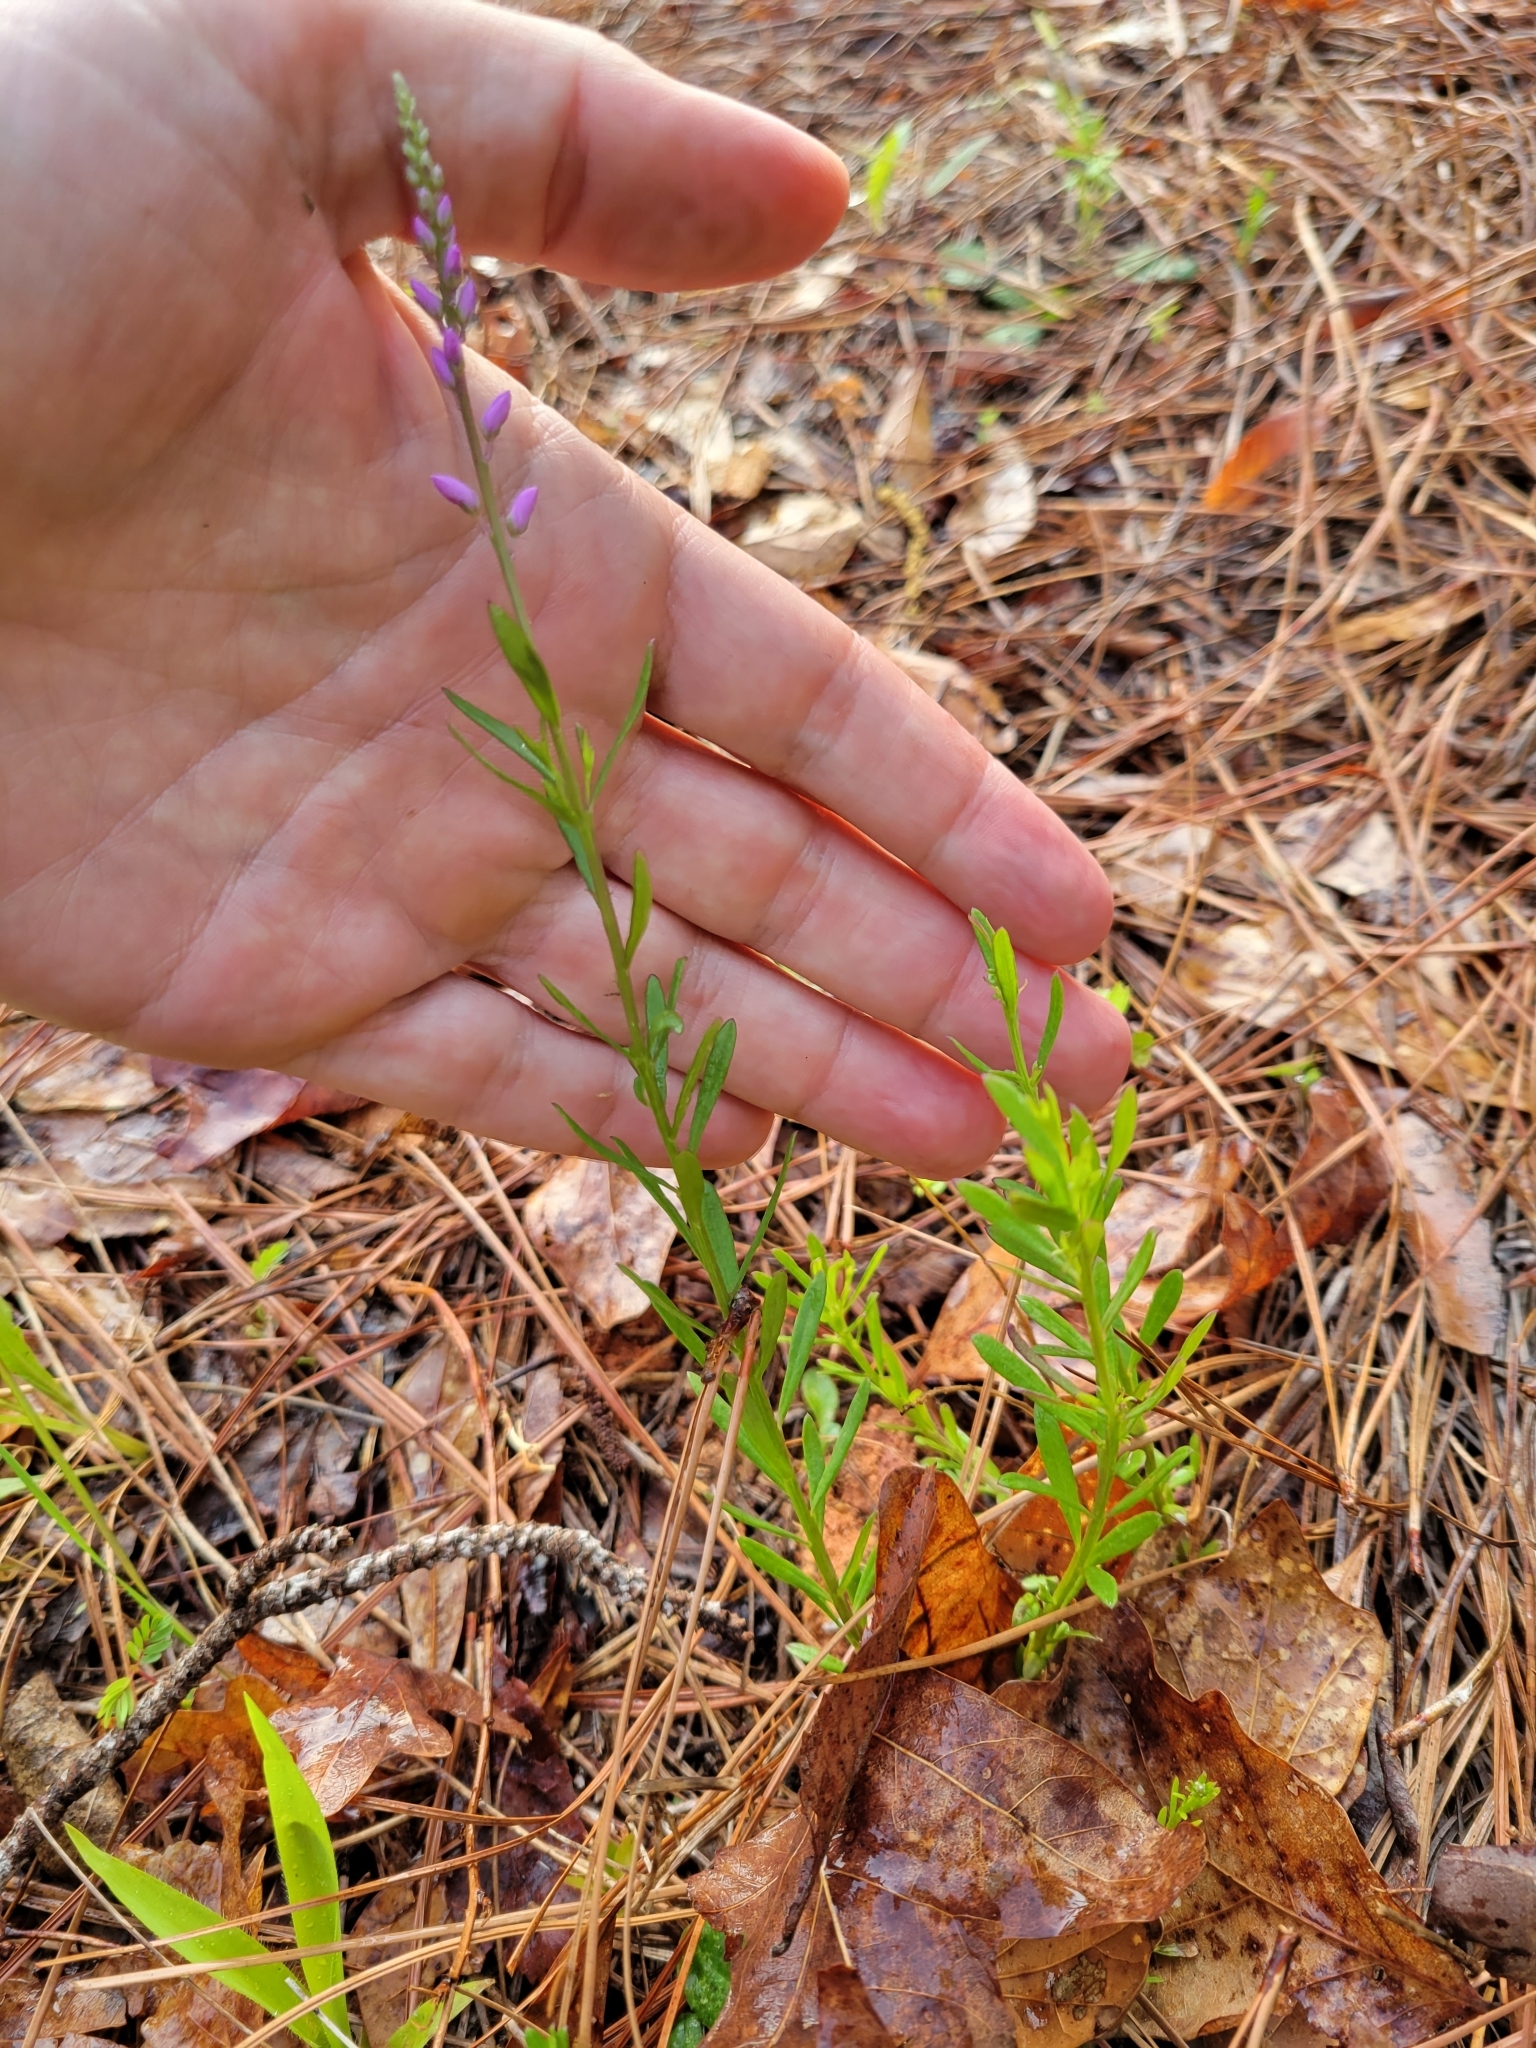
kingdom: Plantae
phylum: Tracheophyta
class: Magnoliopsida
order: Fabales
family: Polygalaceae
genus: Polygala
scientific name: Polygala polygama
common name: Bitter milkwort
